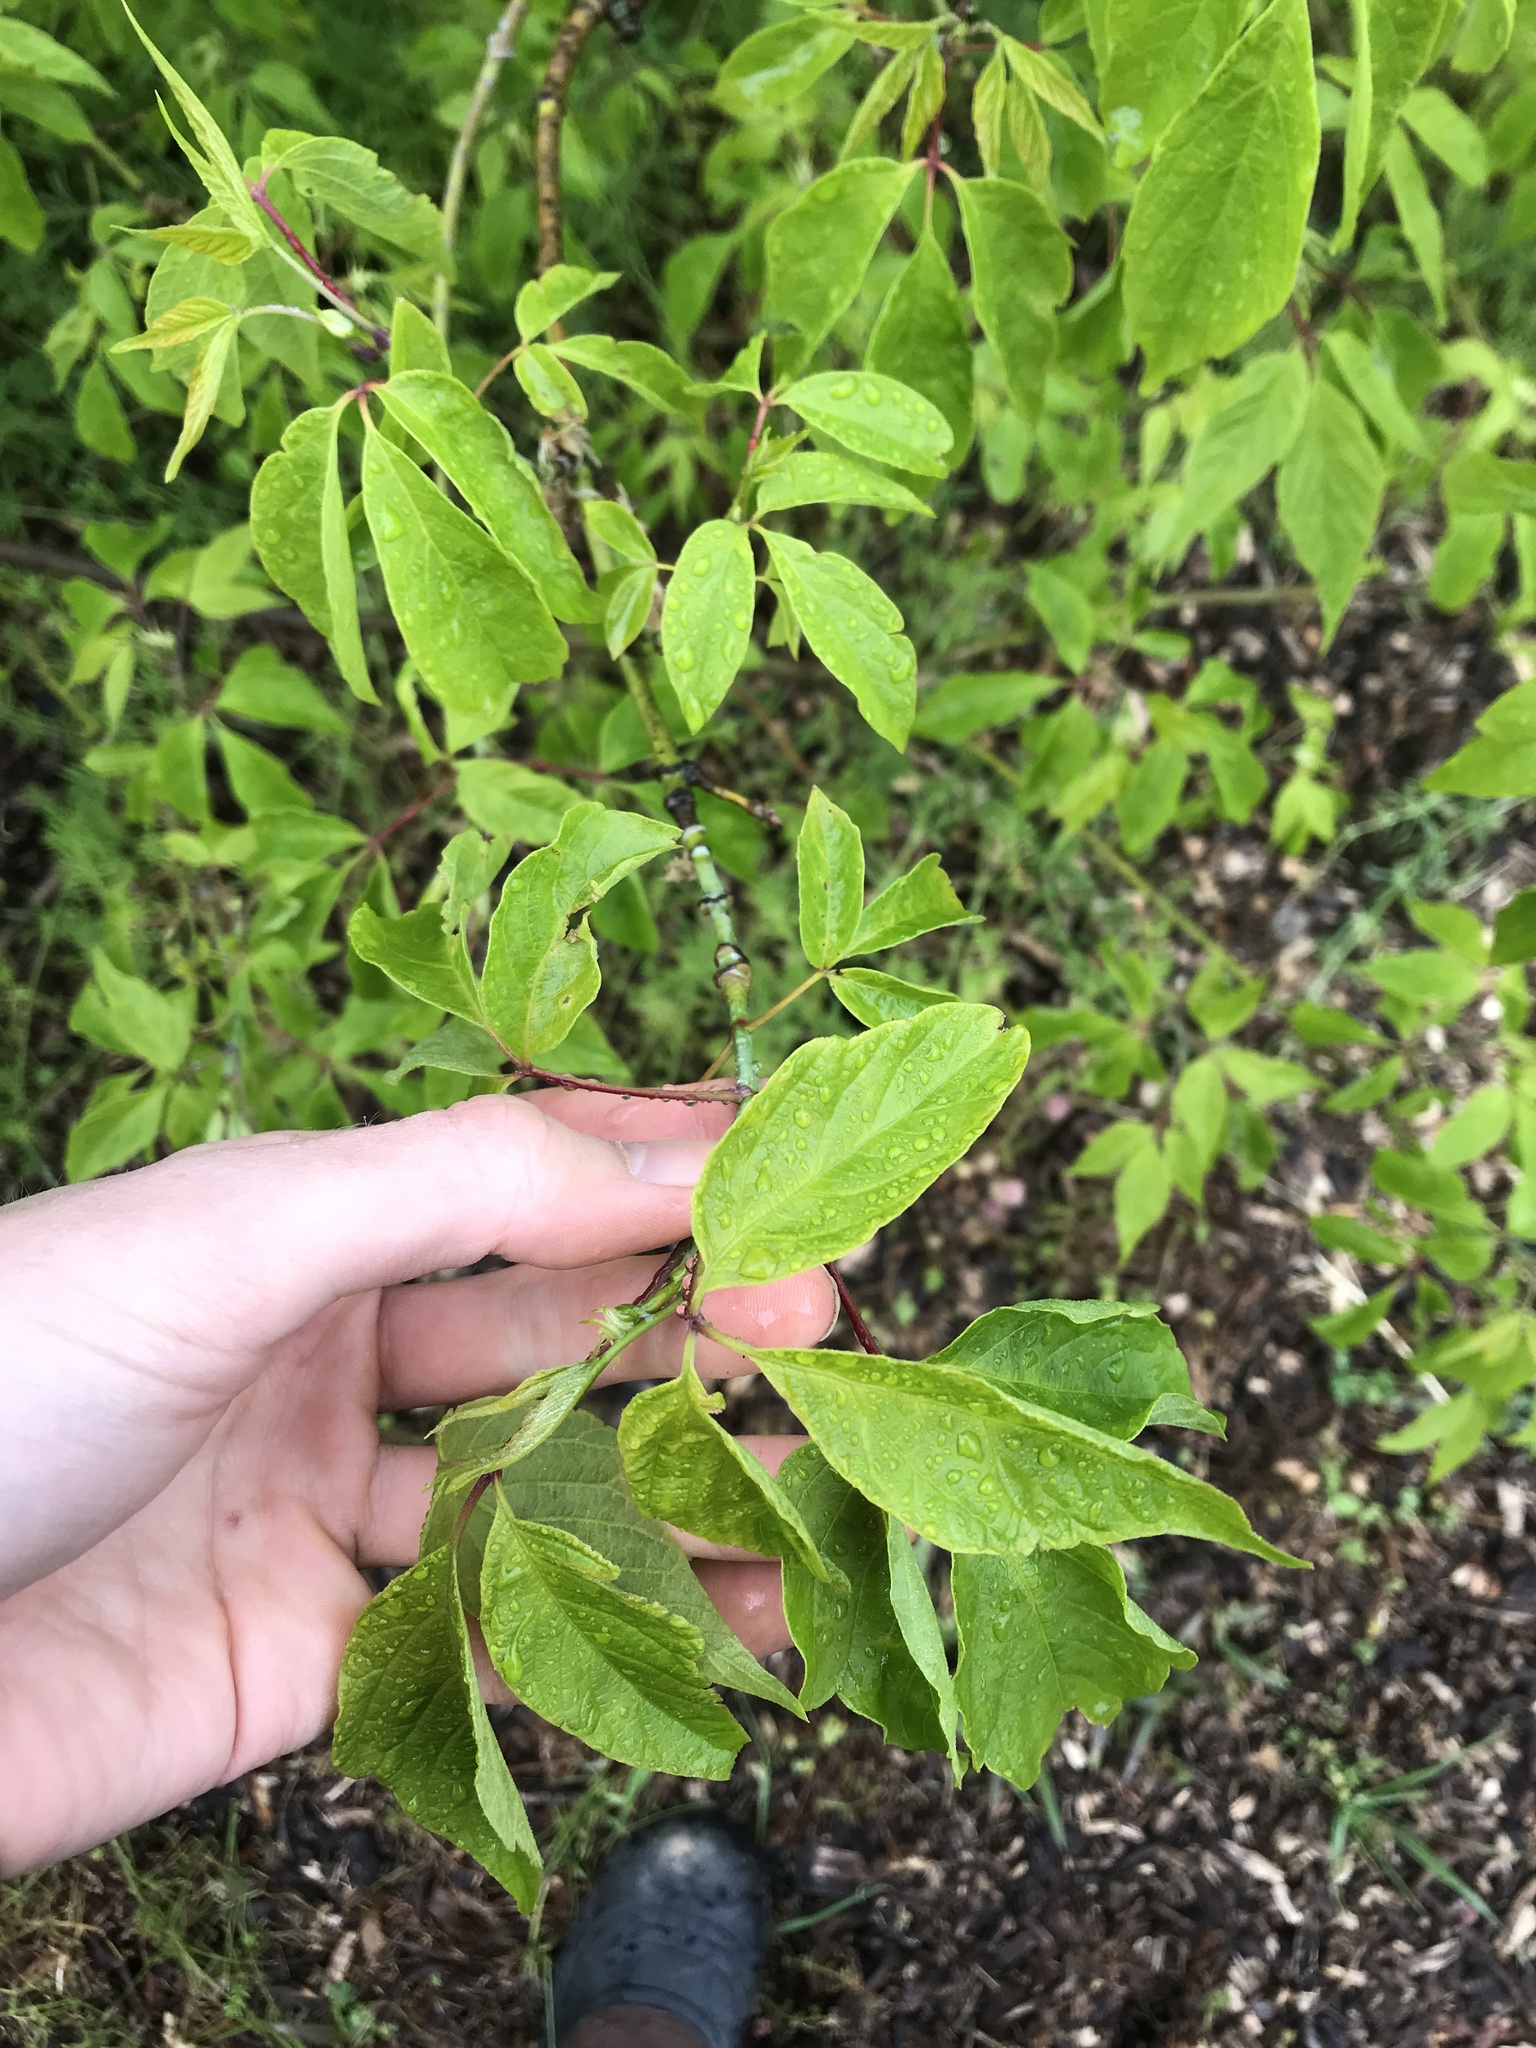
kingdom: Plantae
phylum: Tracheophyta
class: Magnoliopsida
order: Sapindales
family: Sapindaceae
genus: Acer
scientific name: Acer negundo
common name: Ashleaf maple
